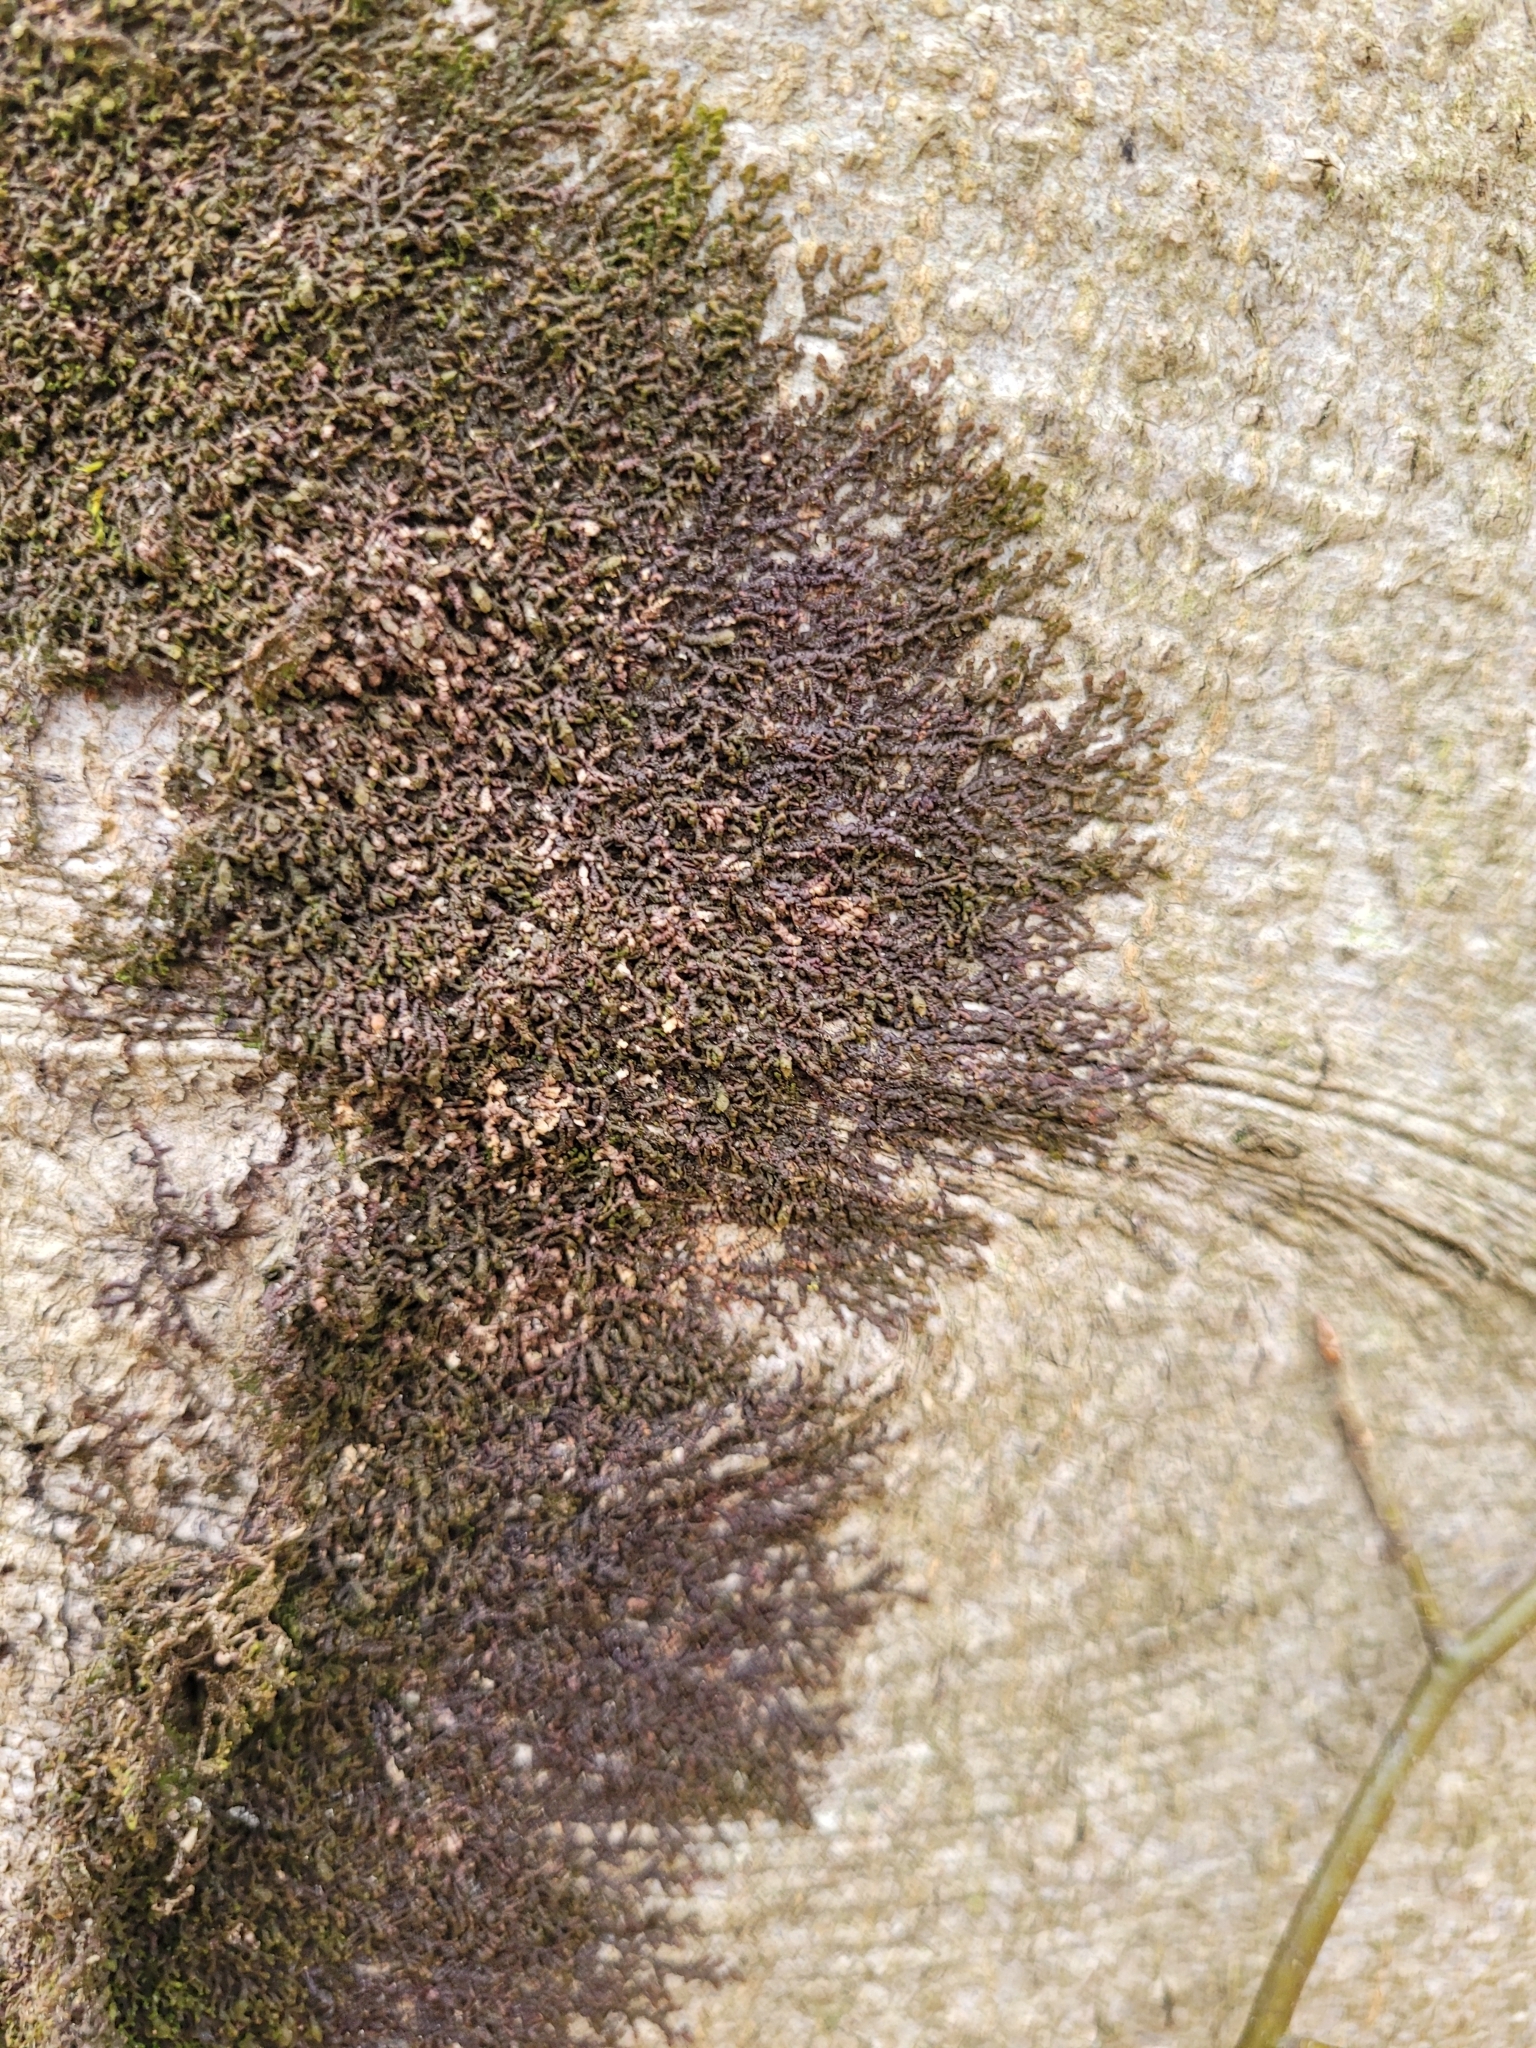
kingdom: Plantae
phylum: Marchantiophyta
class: Jungermanniopsida
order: Porellales
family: Frullaniaceae
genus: Frullania
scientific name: Frullania dilatata
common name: Dilated scalewort
